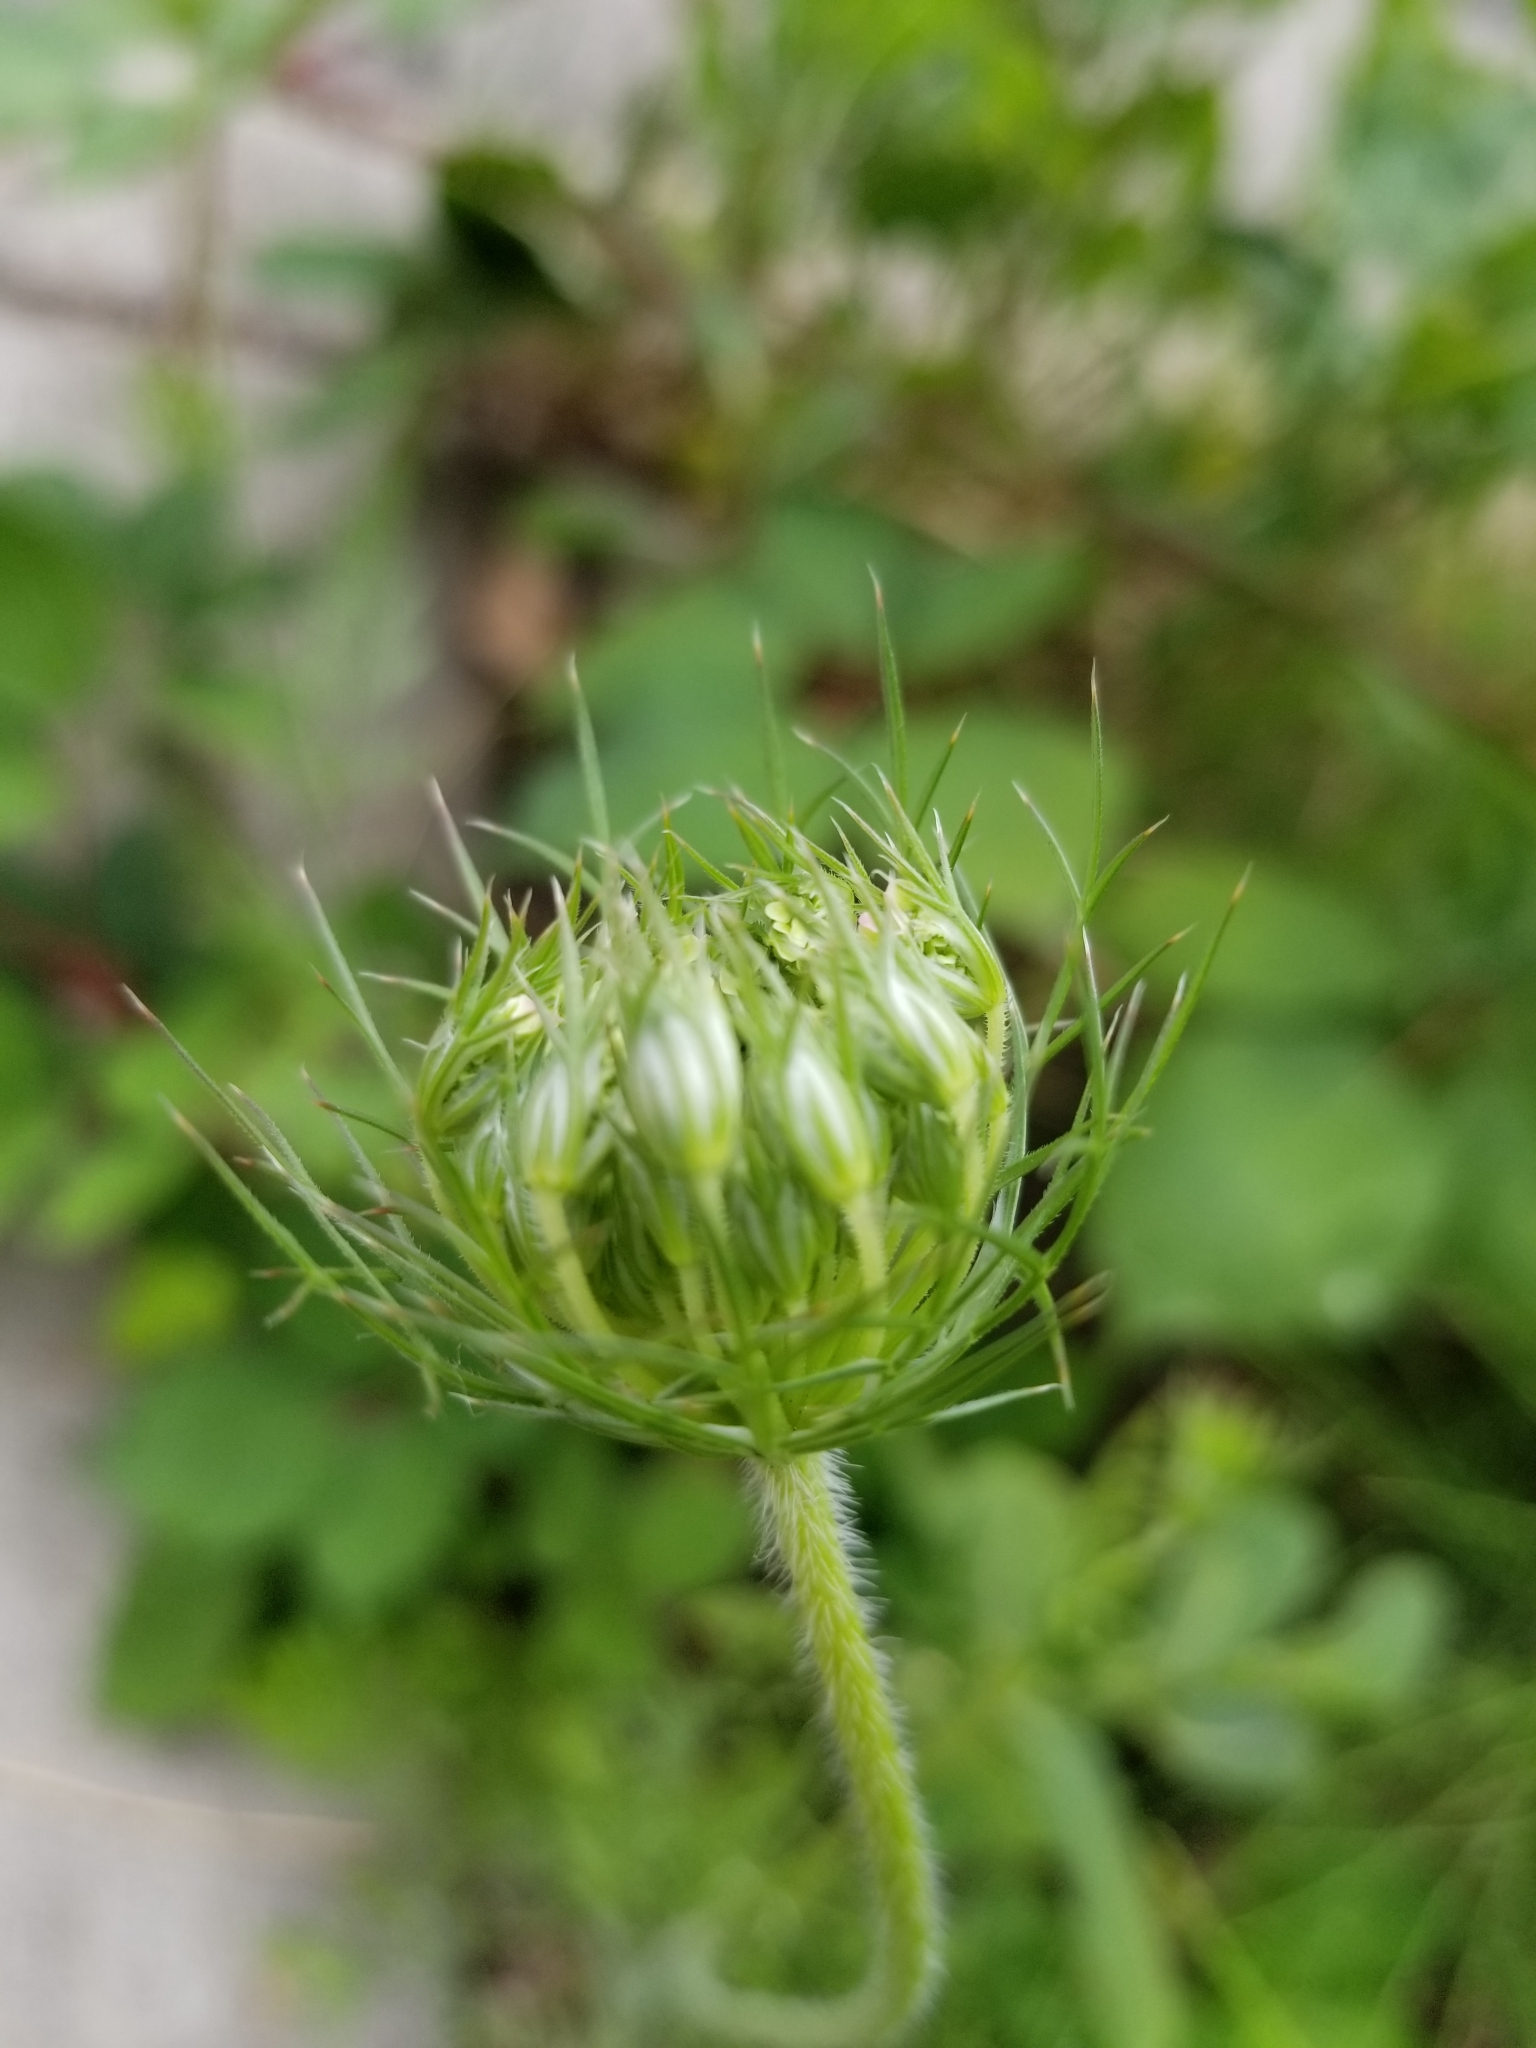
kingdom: Plantae
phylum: Tracheophyta
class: Magnoliopsida
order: Apiales
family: Apiaceae
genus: Daucus
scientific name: Daucus carota
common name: Wild carrot
